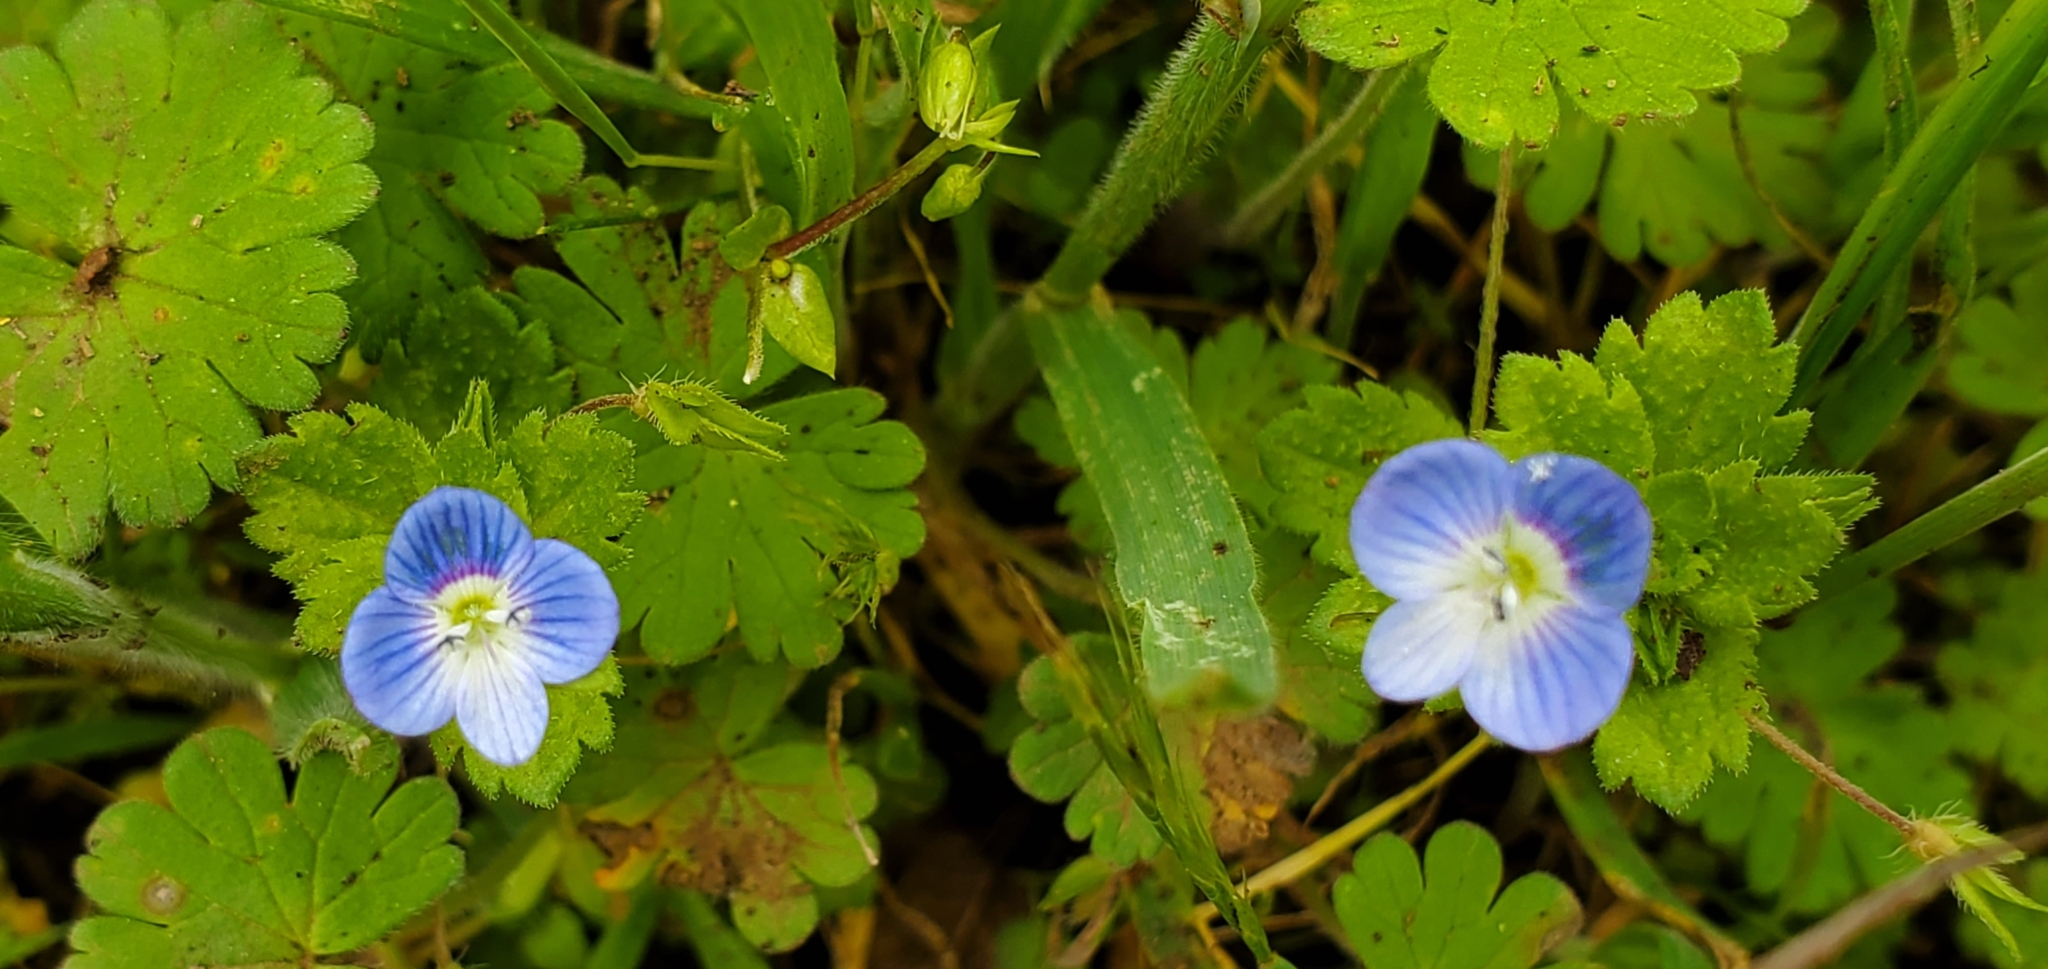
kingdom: Plantae
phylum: Tracheophyta
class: Magnoliopsida
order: Lamiales
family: Plantaginaceae
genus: Veronica
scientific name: Veronica persica
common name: Common field-speedwell
